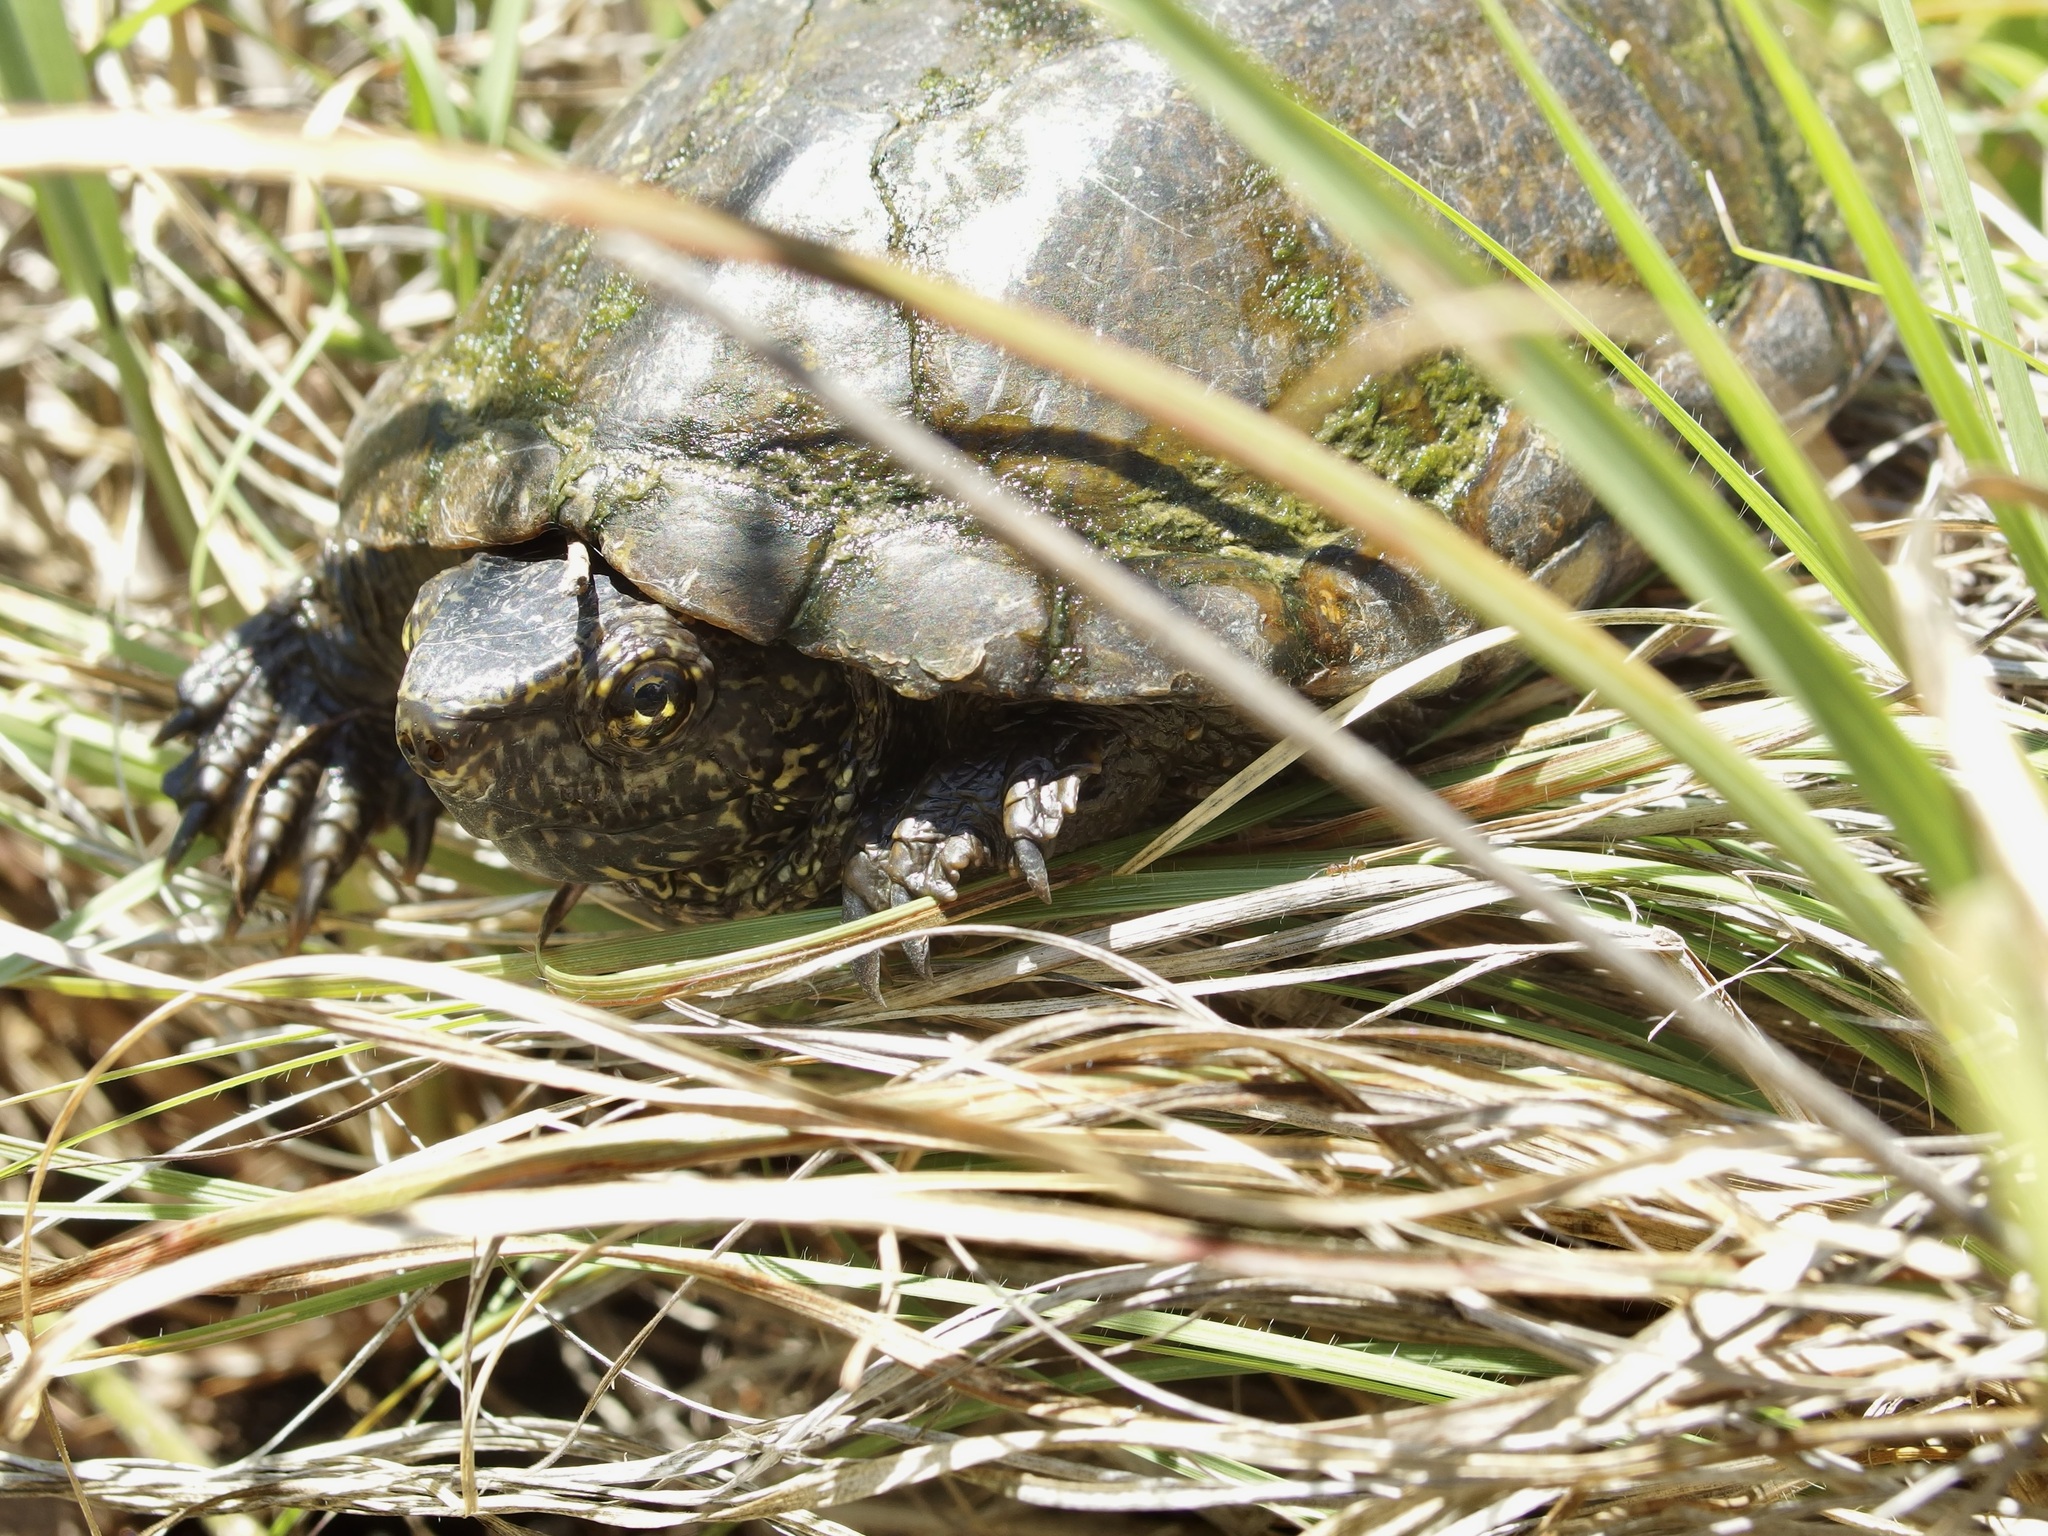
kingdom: Animalia
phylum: Chordata
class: Testudines
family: Kinosternidae
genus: Kinosternon
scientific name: Kinosternon sonoriense
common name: Sonora mud turtle
